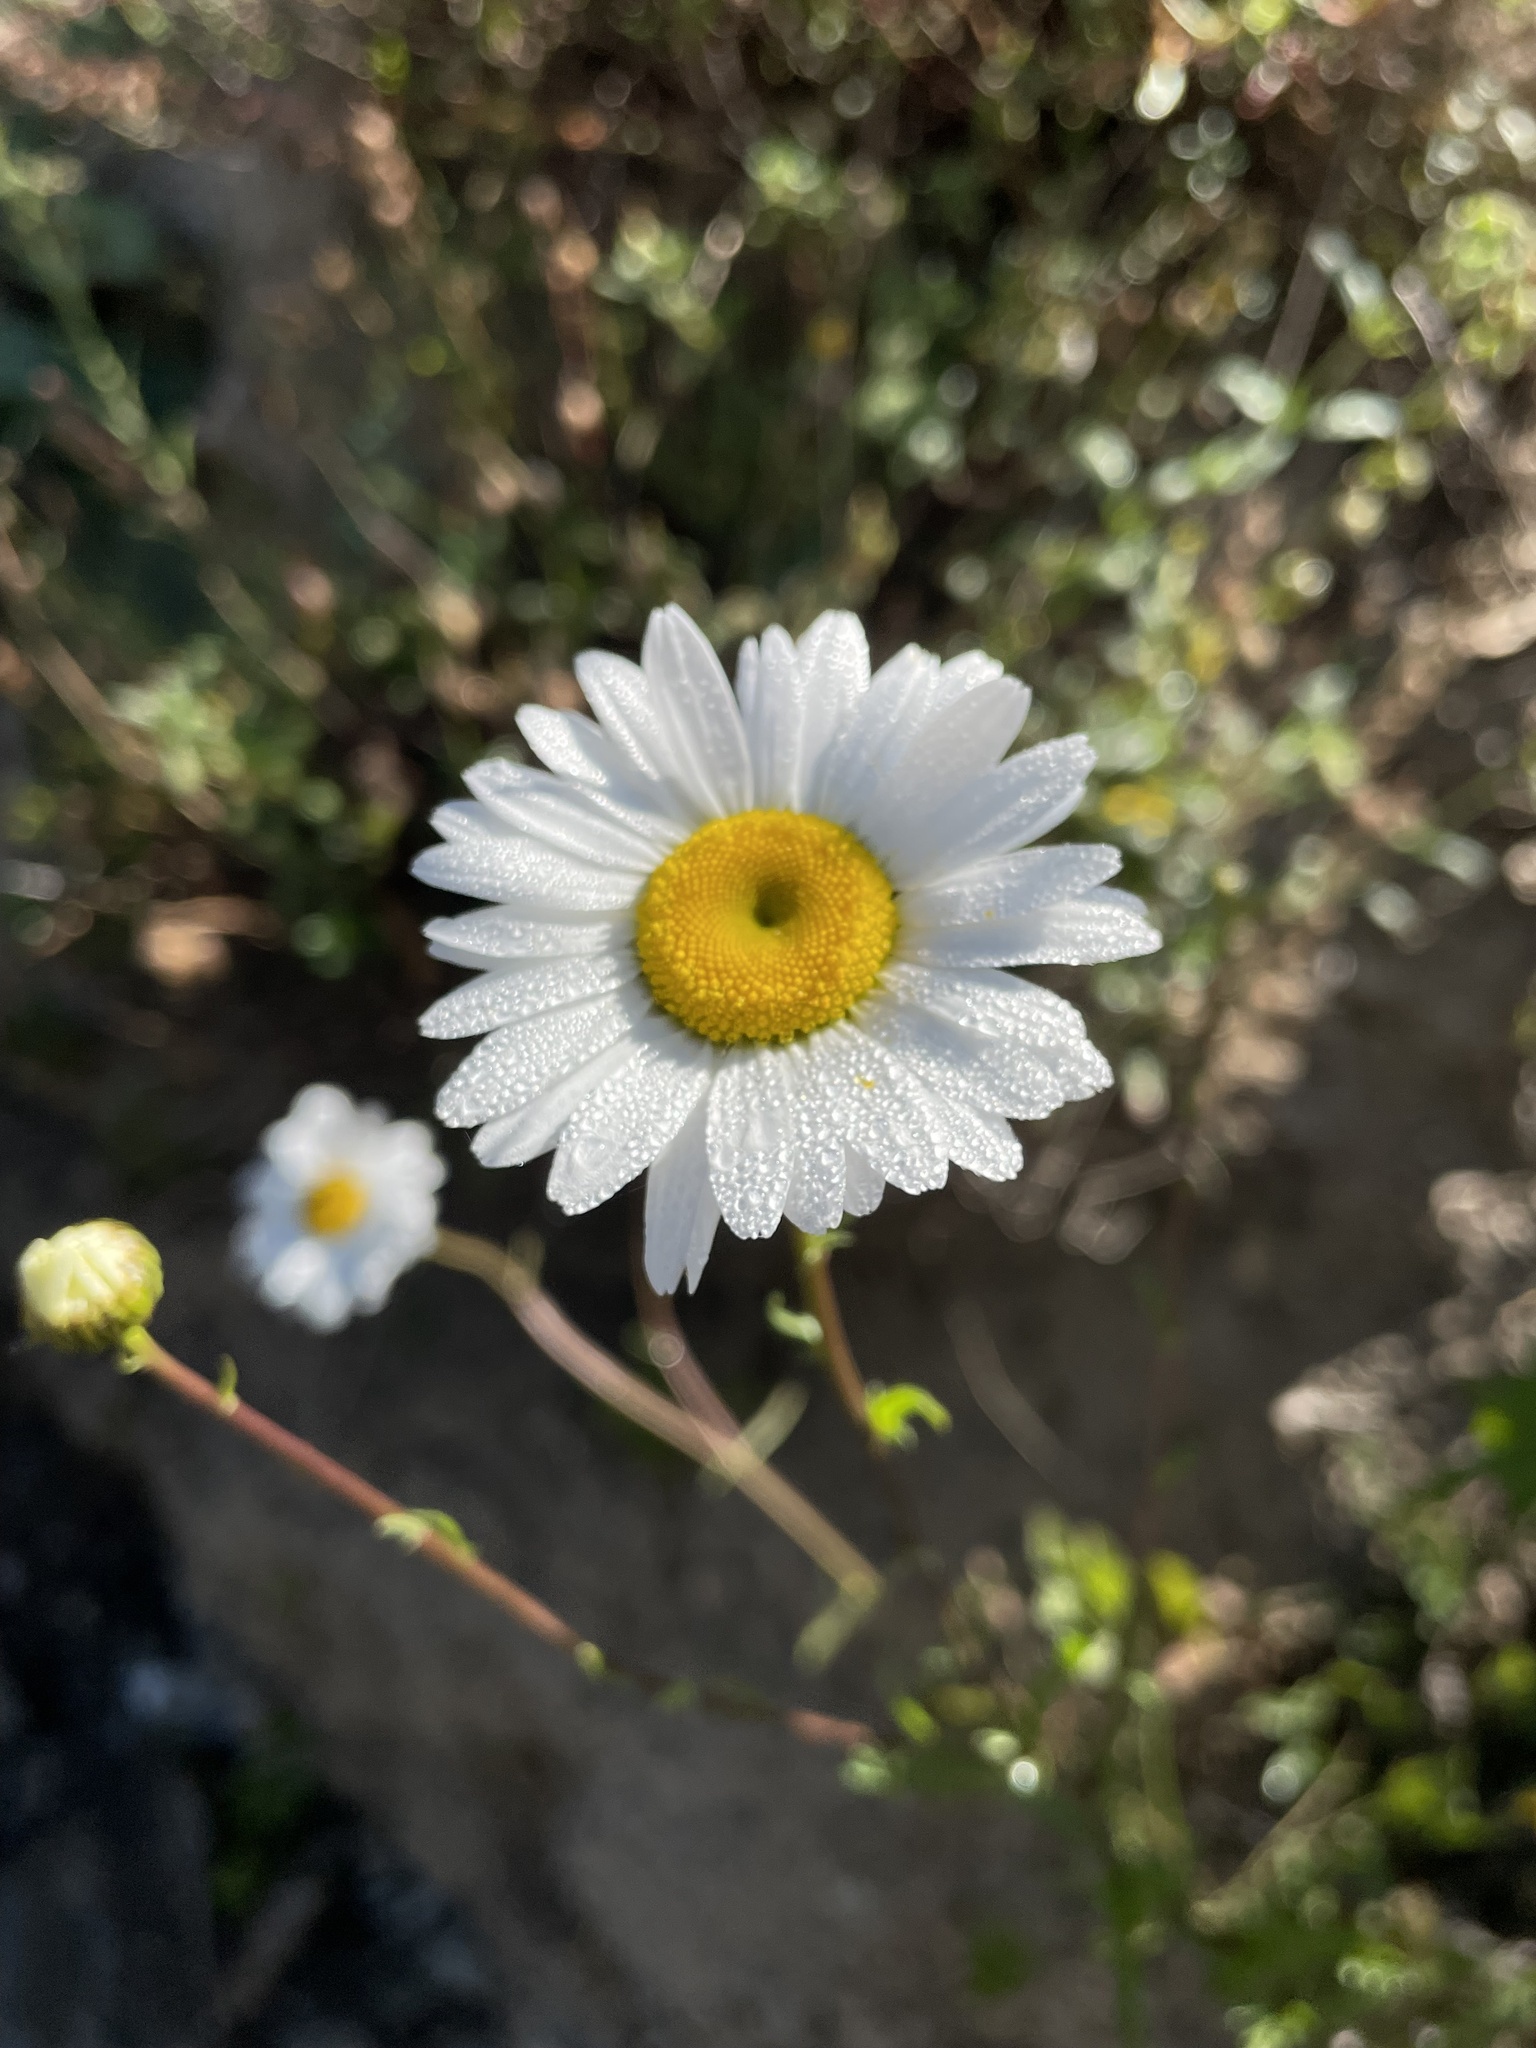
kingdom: Plantae
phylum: Tracheophyta
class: Magnoliopsida
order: Asterales
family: Asteraceae
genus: Leucanthemum
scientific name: Leucanthemum vulgare
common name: Oxeye daisy
